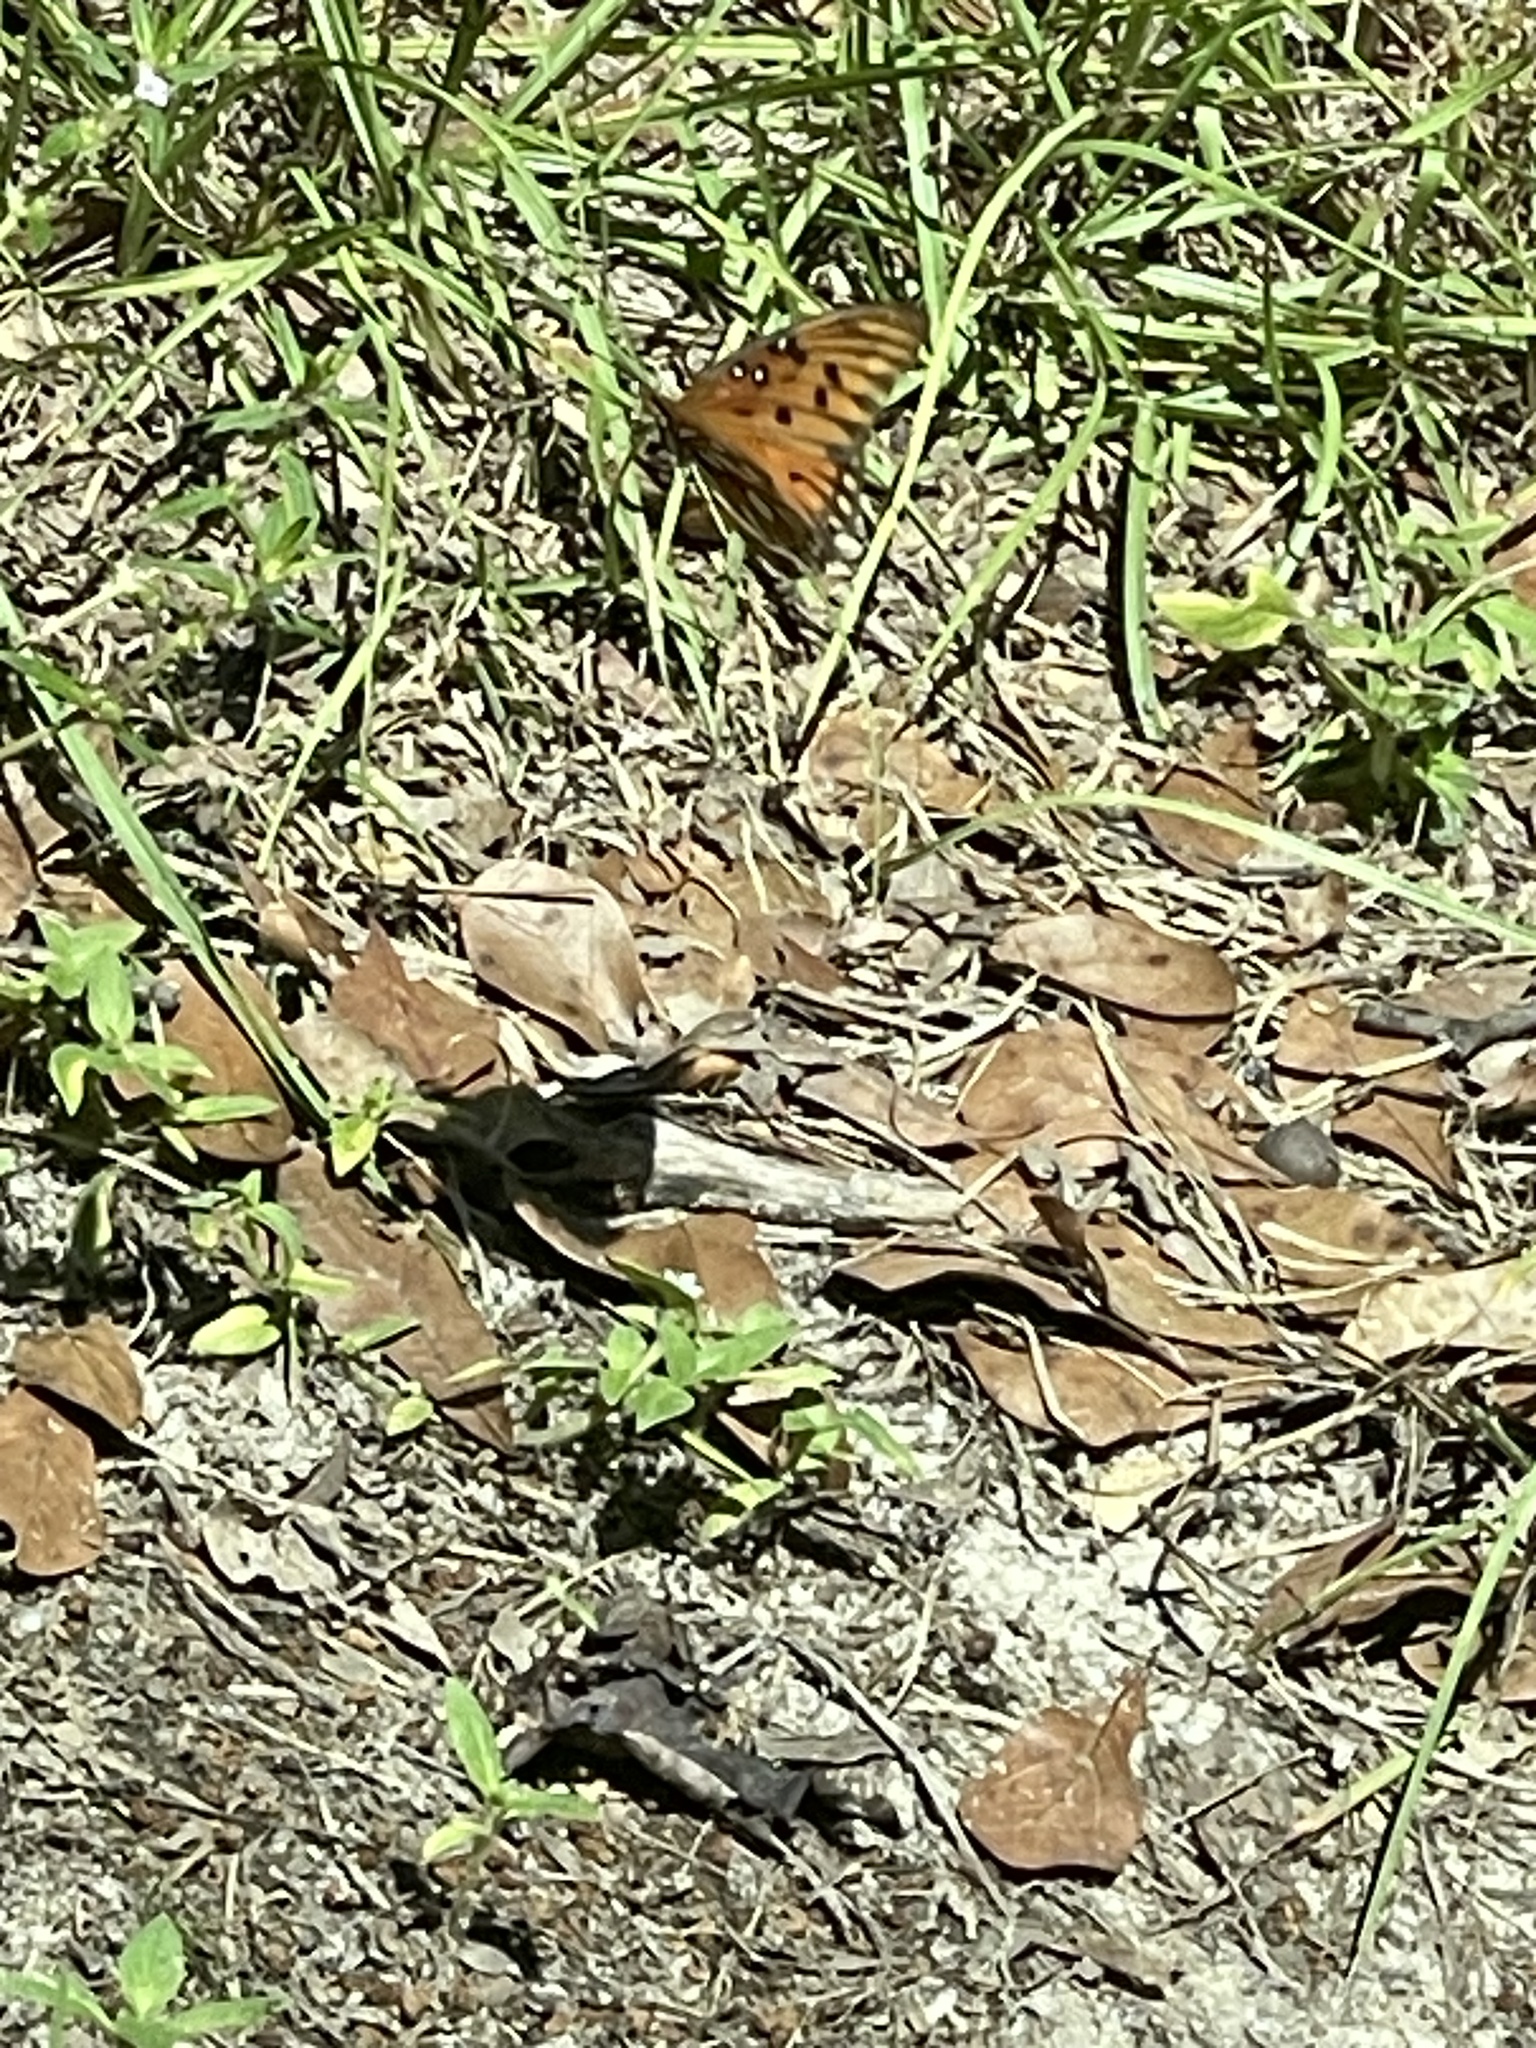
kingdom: Animalia
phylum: Arthropoda
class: Insecta
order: Lepidoptera
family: Nymphalidae
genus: Dione
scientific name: Dione vanillae
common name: Gulf fritillary
